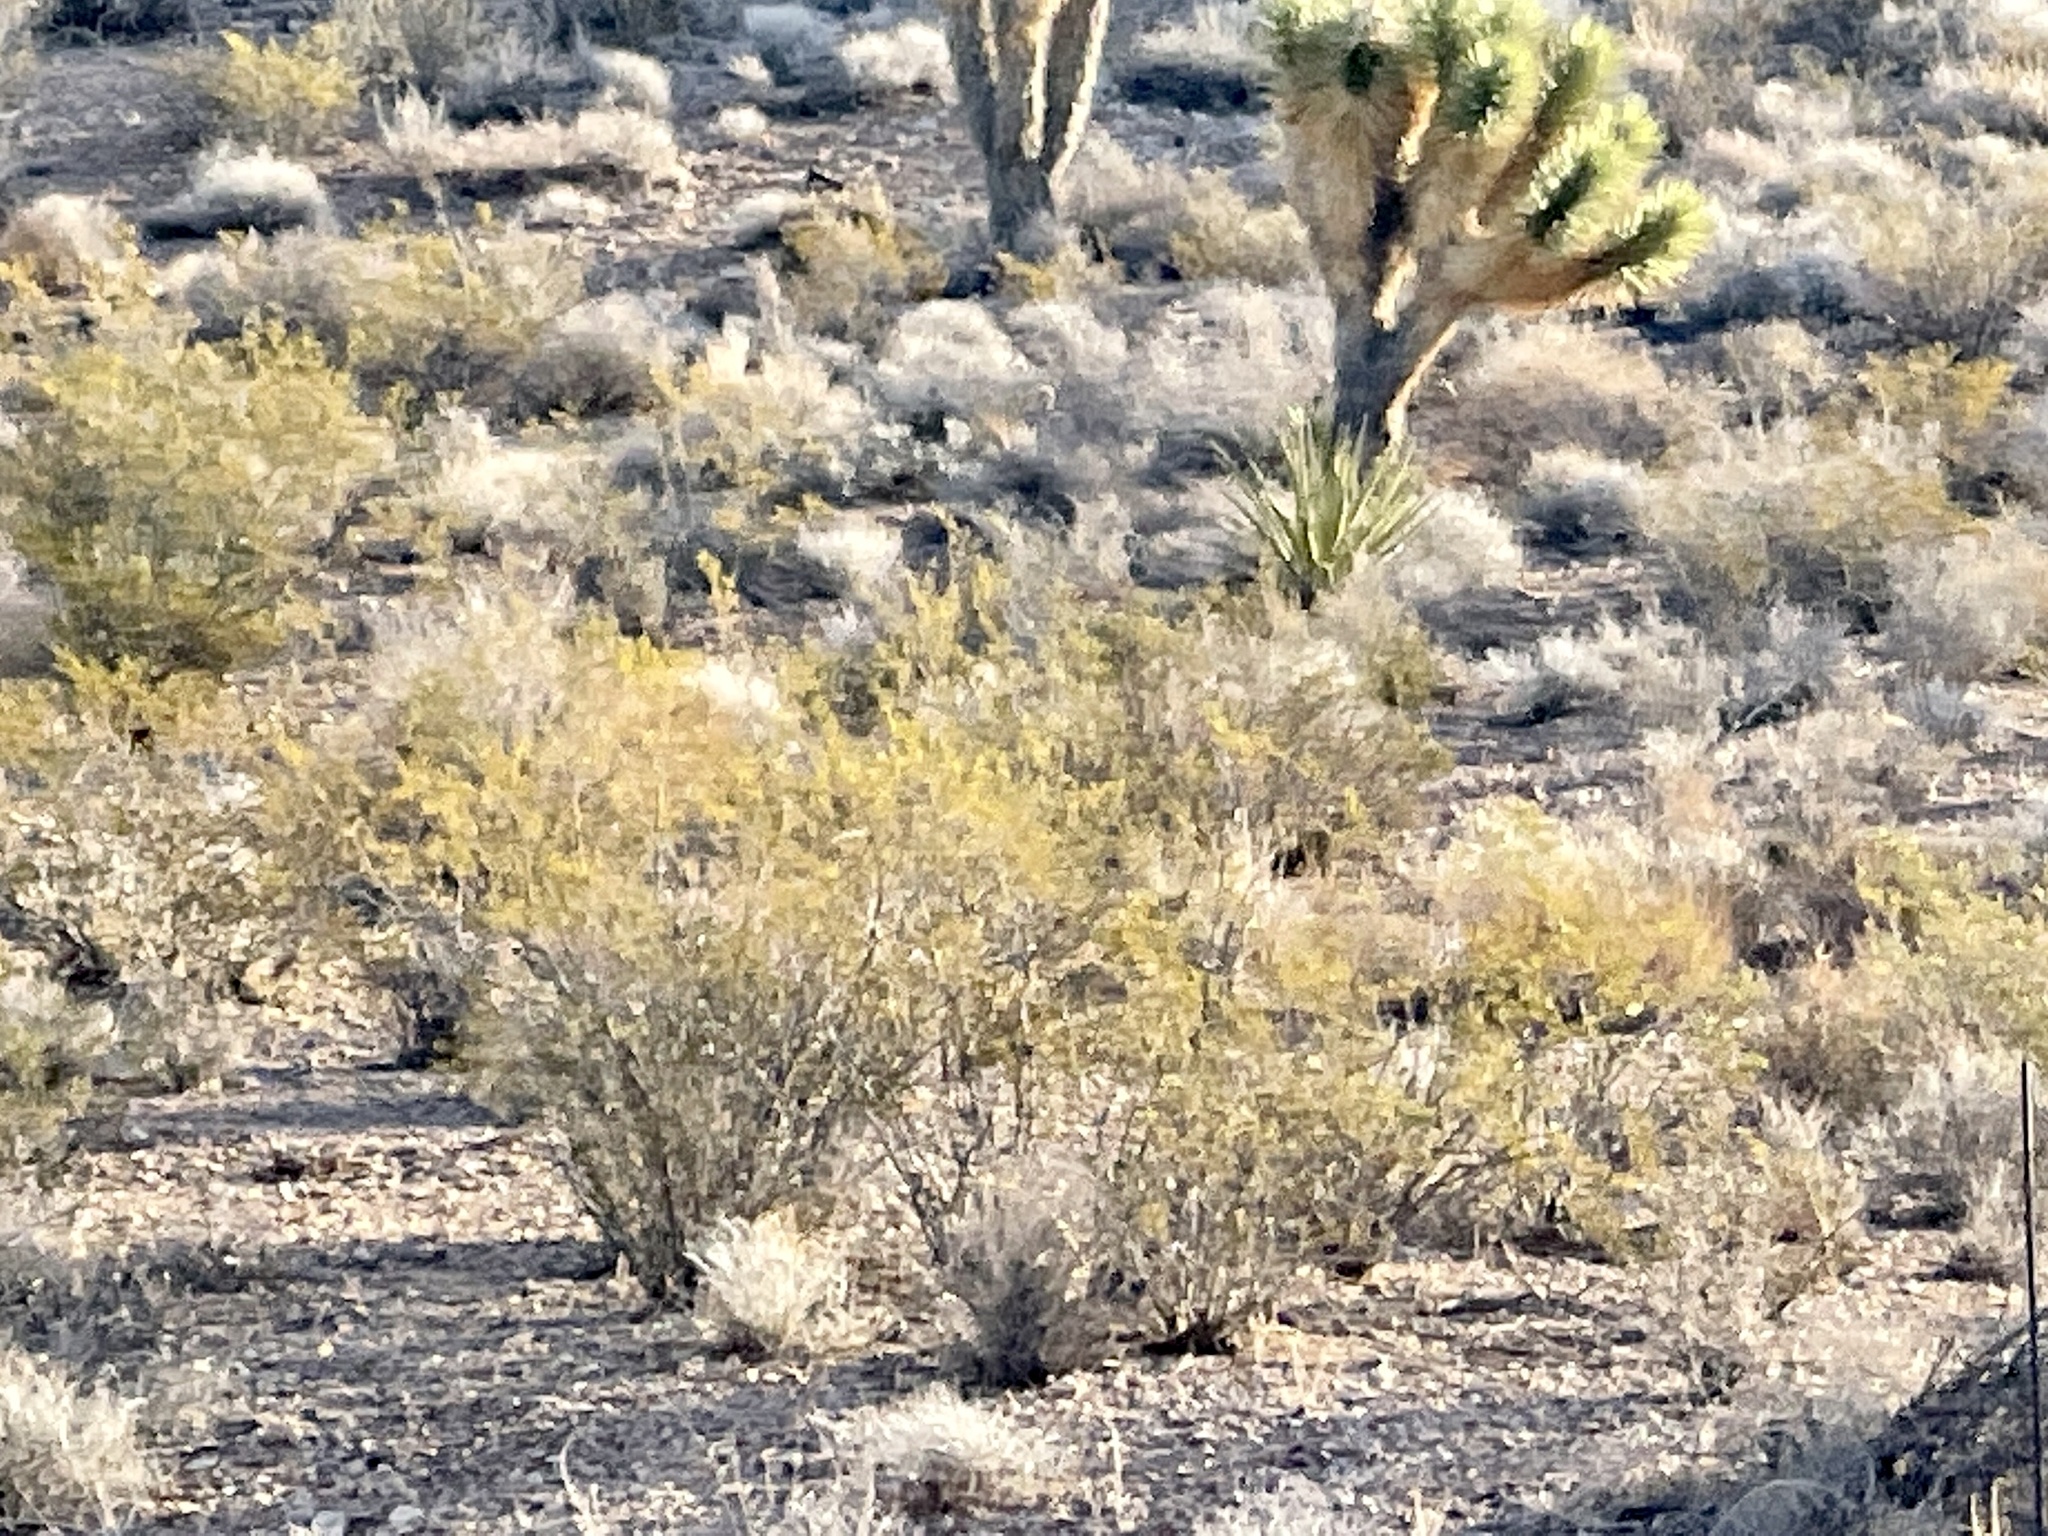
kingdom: Plantae
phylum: Tracheophyta
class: Magnoliopsida
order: Zygophyllales
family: Zygophyllaceae
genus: Larrea
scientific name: Larrea tridentata
